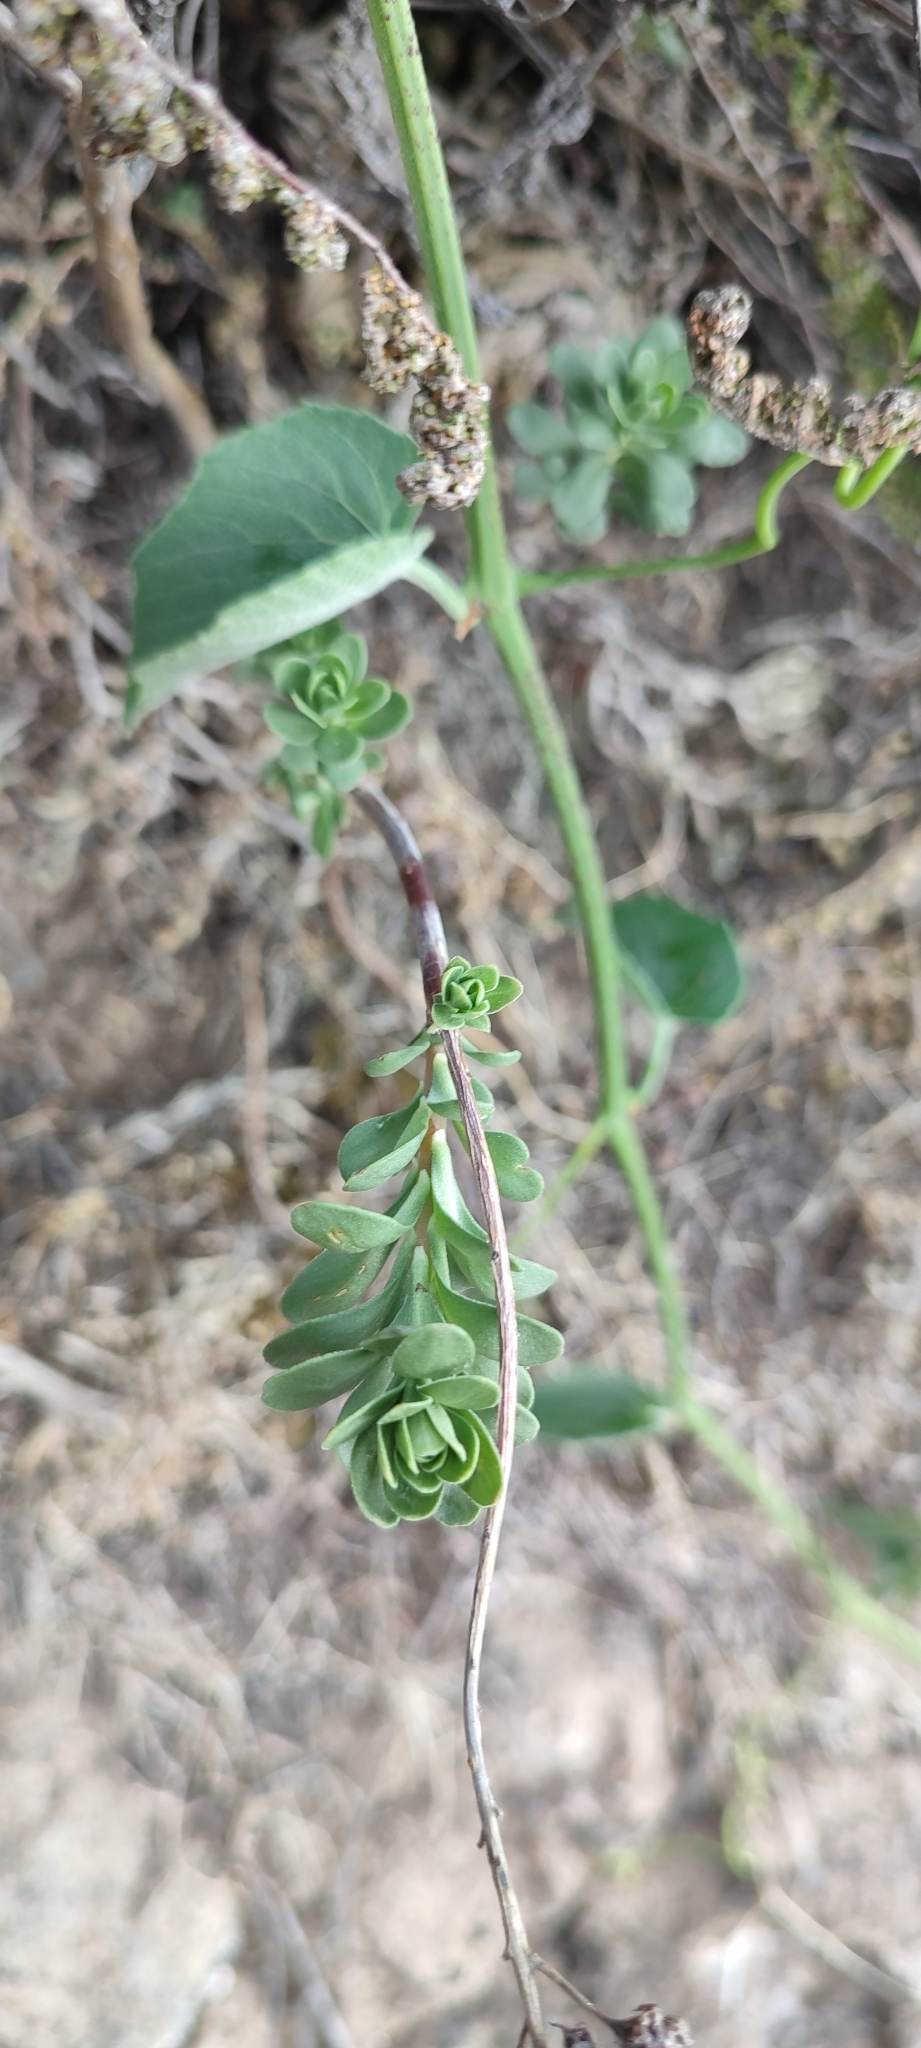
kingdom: Plantae
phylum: Tracheophyta
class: Magnoliopsida
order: Saxifragales
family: Crassulaceae
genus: Sedum
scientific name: Sedum quevae
